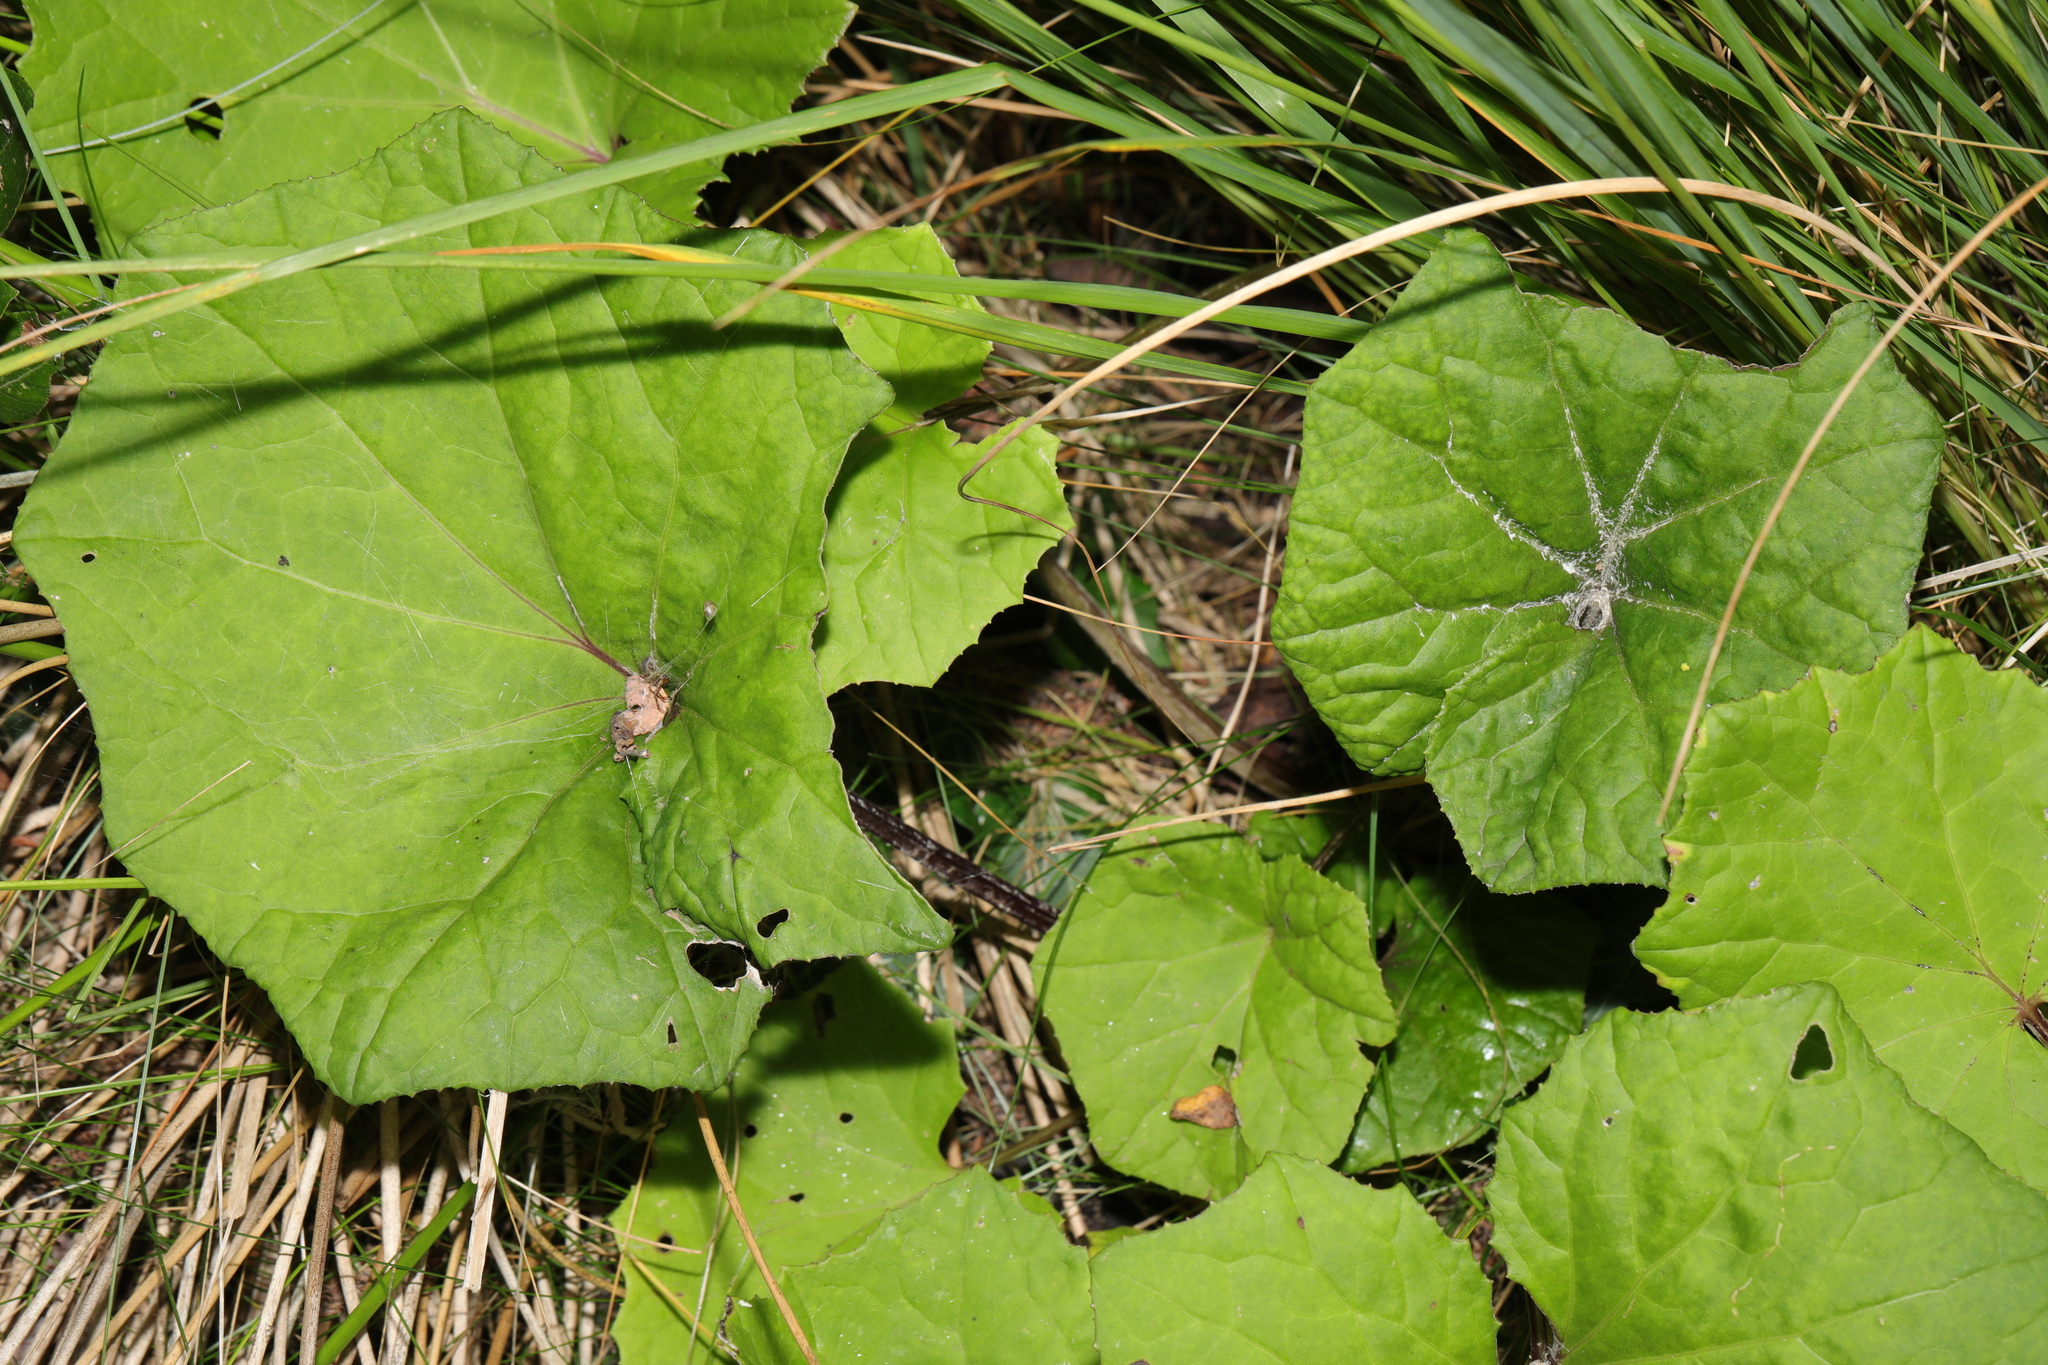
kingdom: Plantae
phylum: Tracheophyta
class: Magnoliopsida
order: Asterales
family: Asteraceae
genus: Tussilago
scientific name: Tussilago farfara
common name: Coltsfoot
